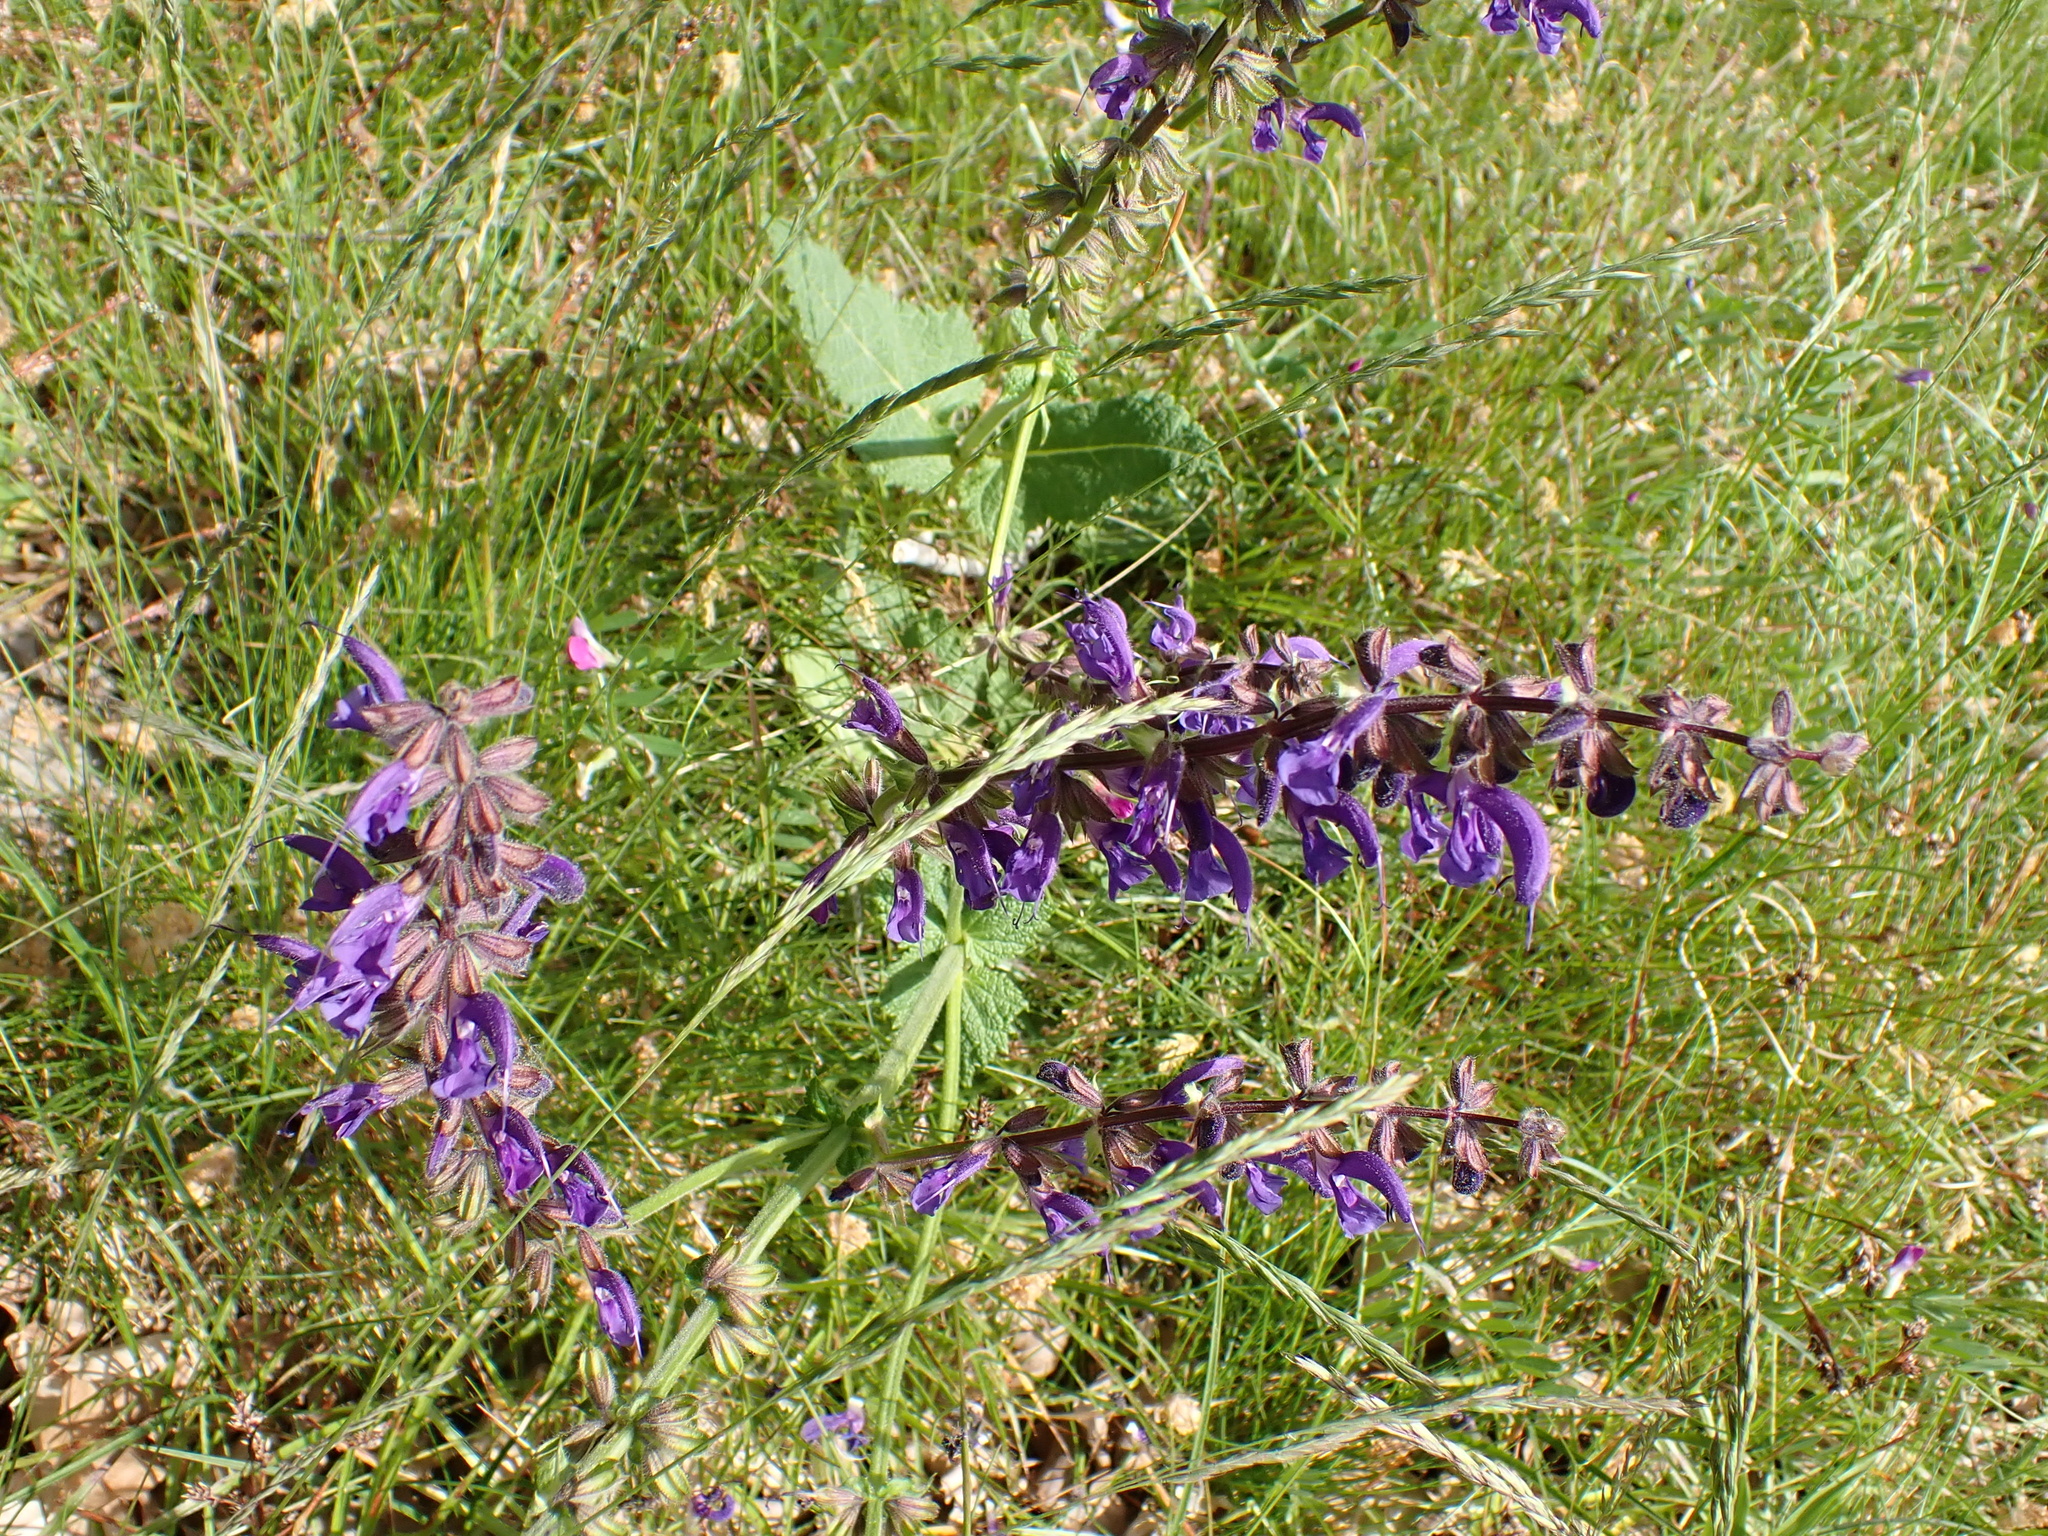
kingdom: Plantae
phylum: Tracheophyta
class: Magnoliopsida
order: Lamiales
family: Lamiaceae
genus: Salvia
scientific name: Salvia pratensis
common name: Meadow sage
